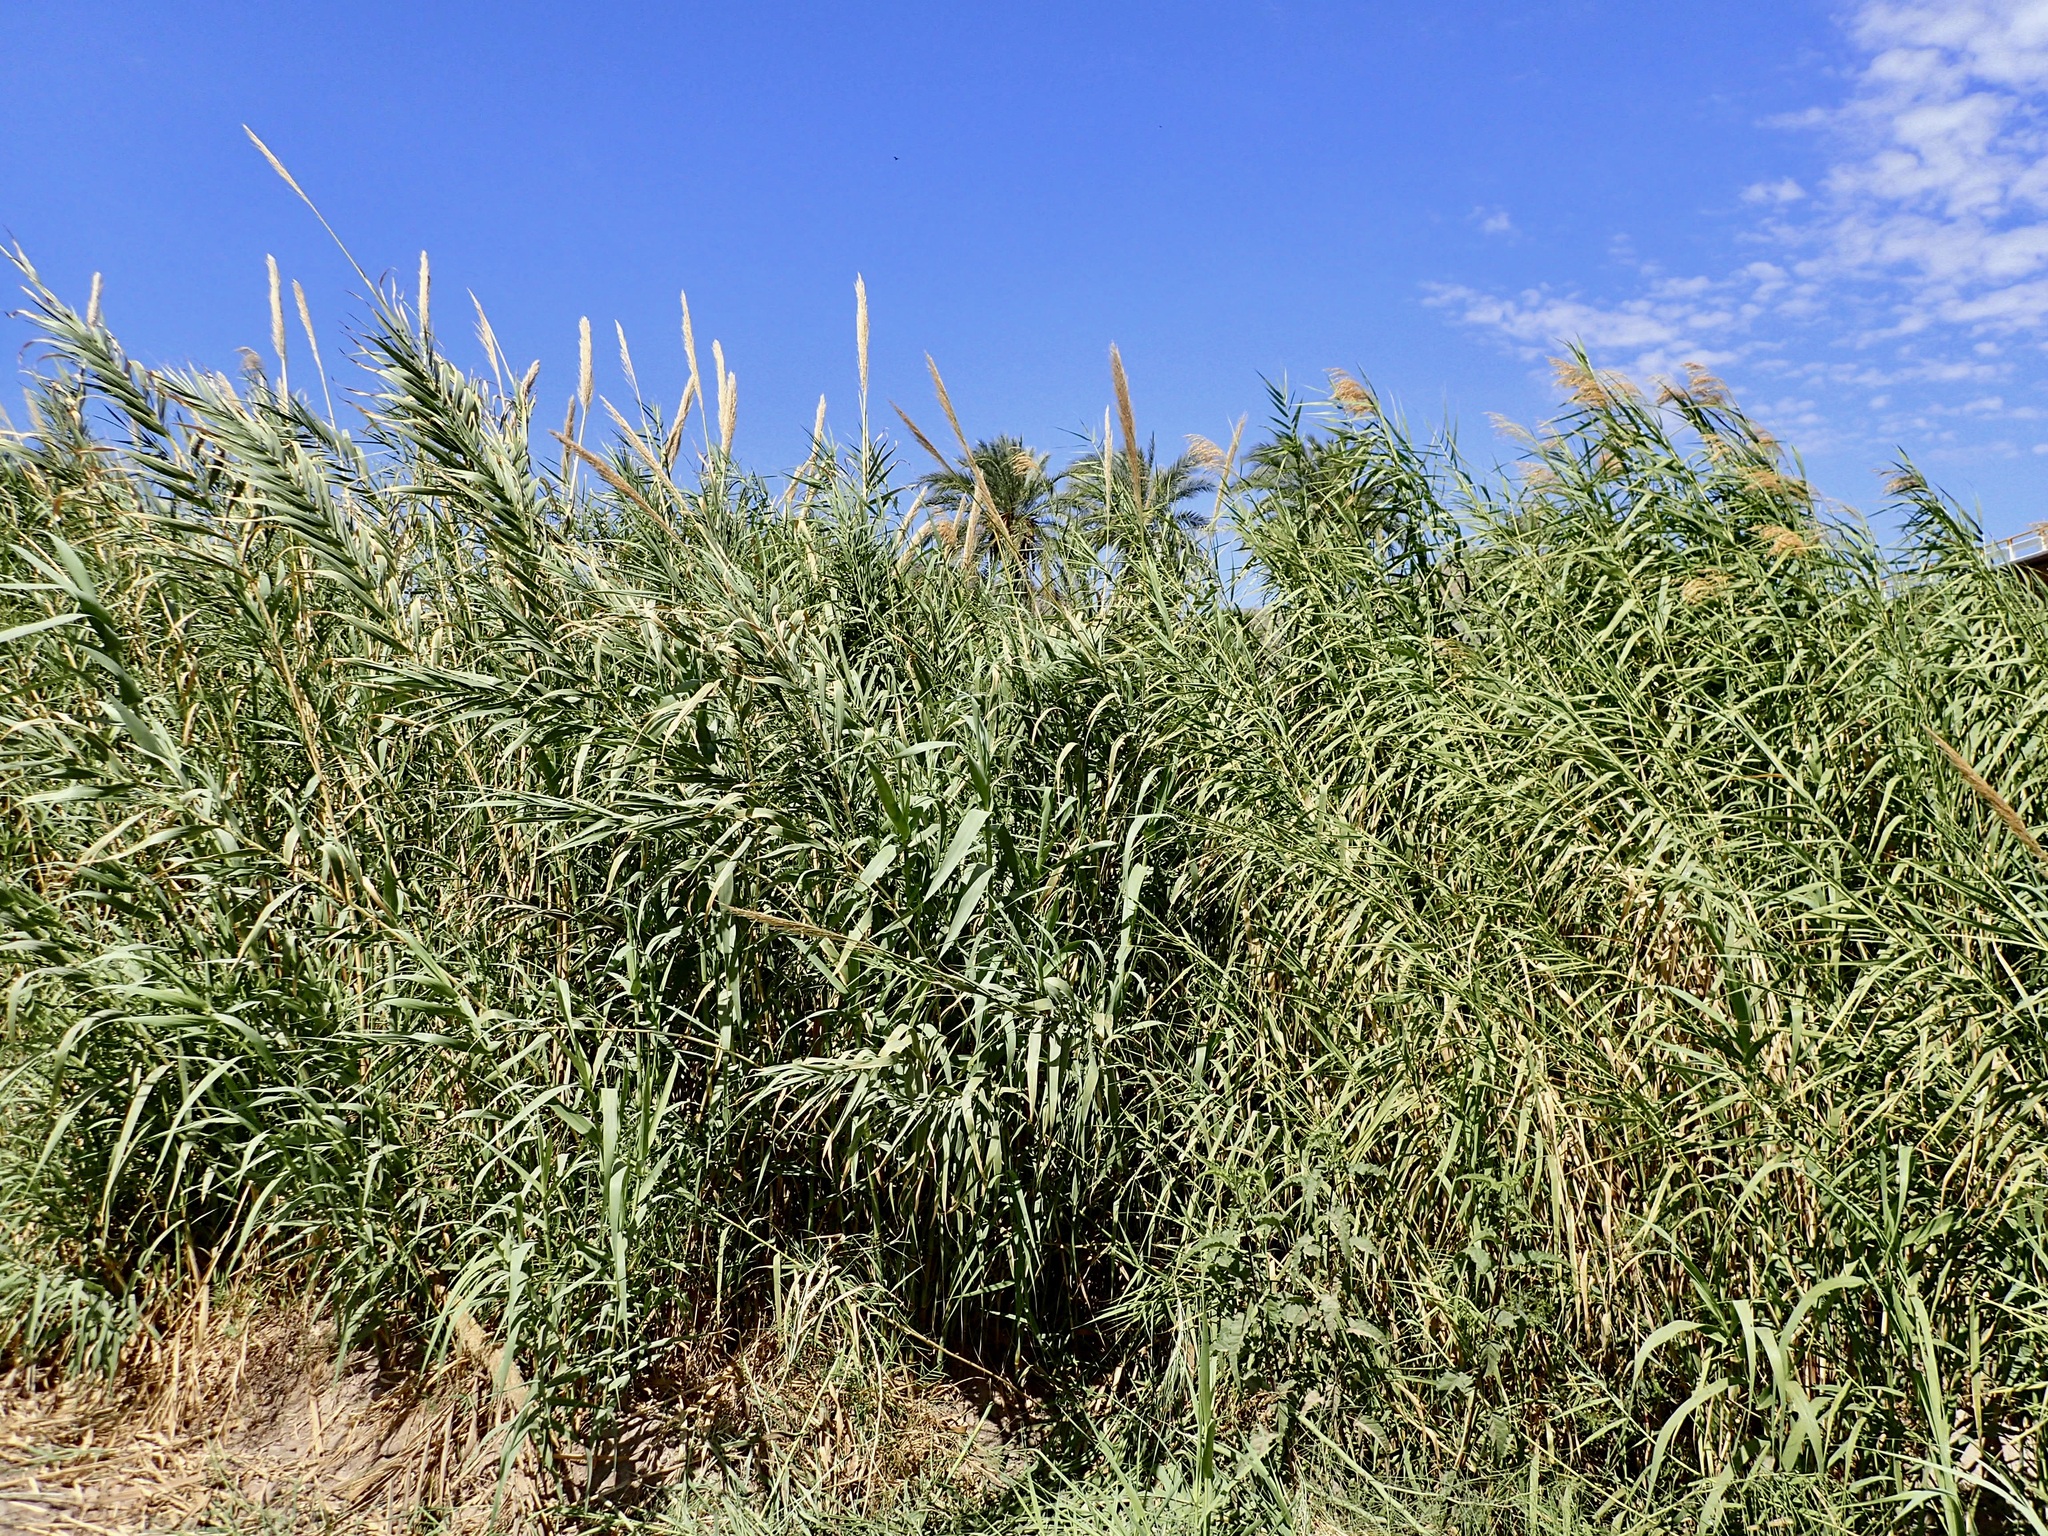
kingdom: Plantae
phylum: Tracheophyta
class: Liliopsida
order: Poales
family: Poaceae
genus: Arundo
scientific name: Arundo donax
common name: Giant reed
